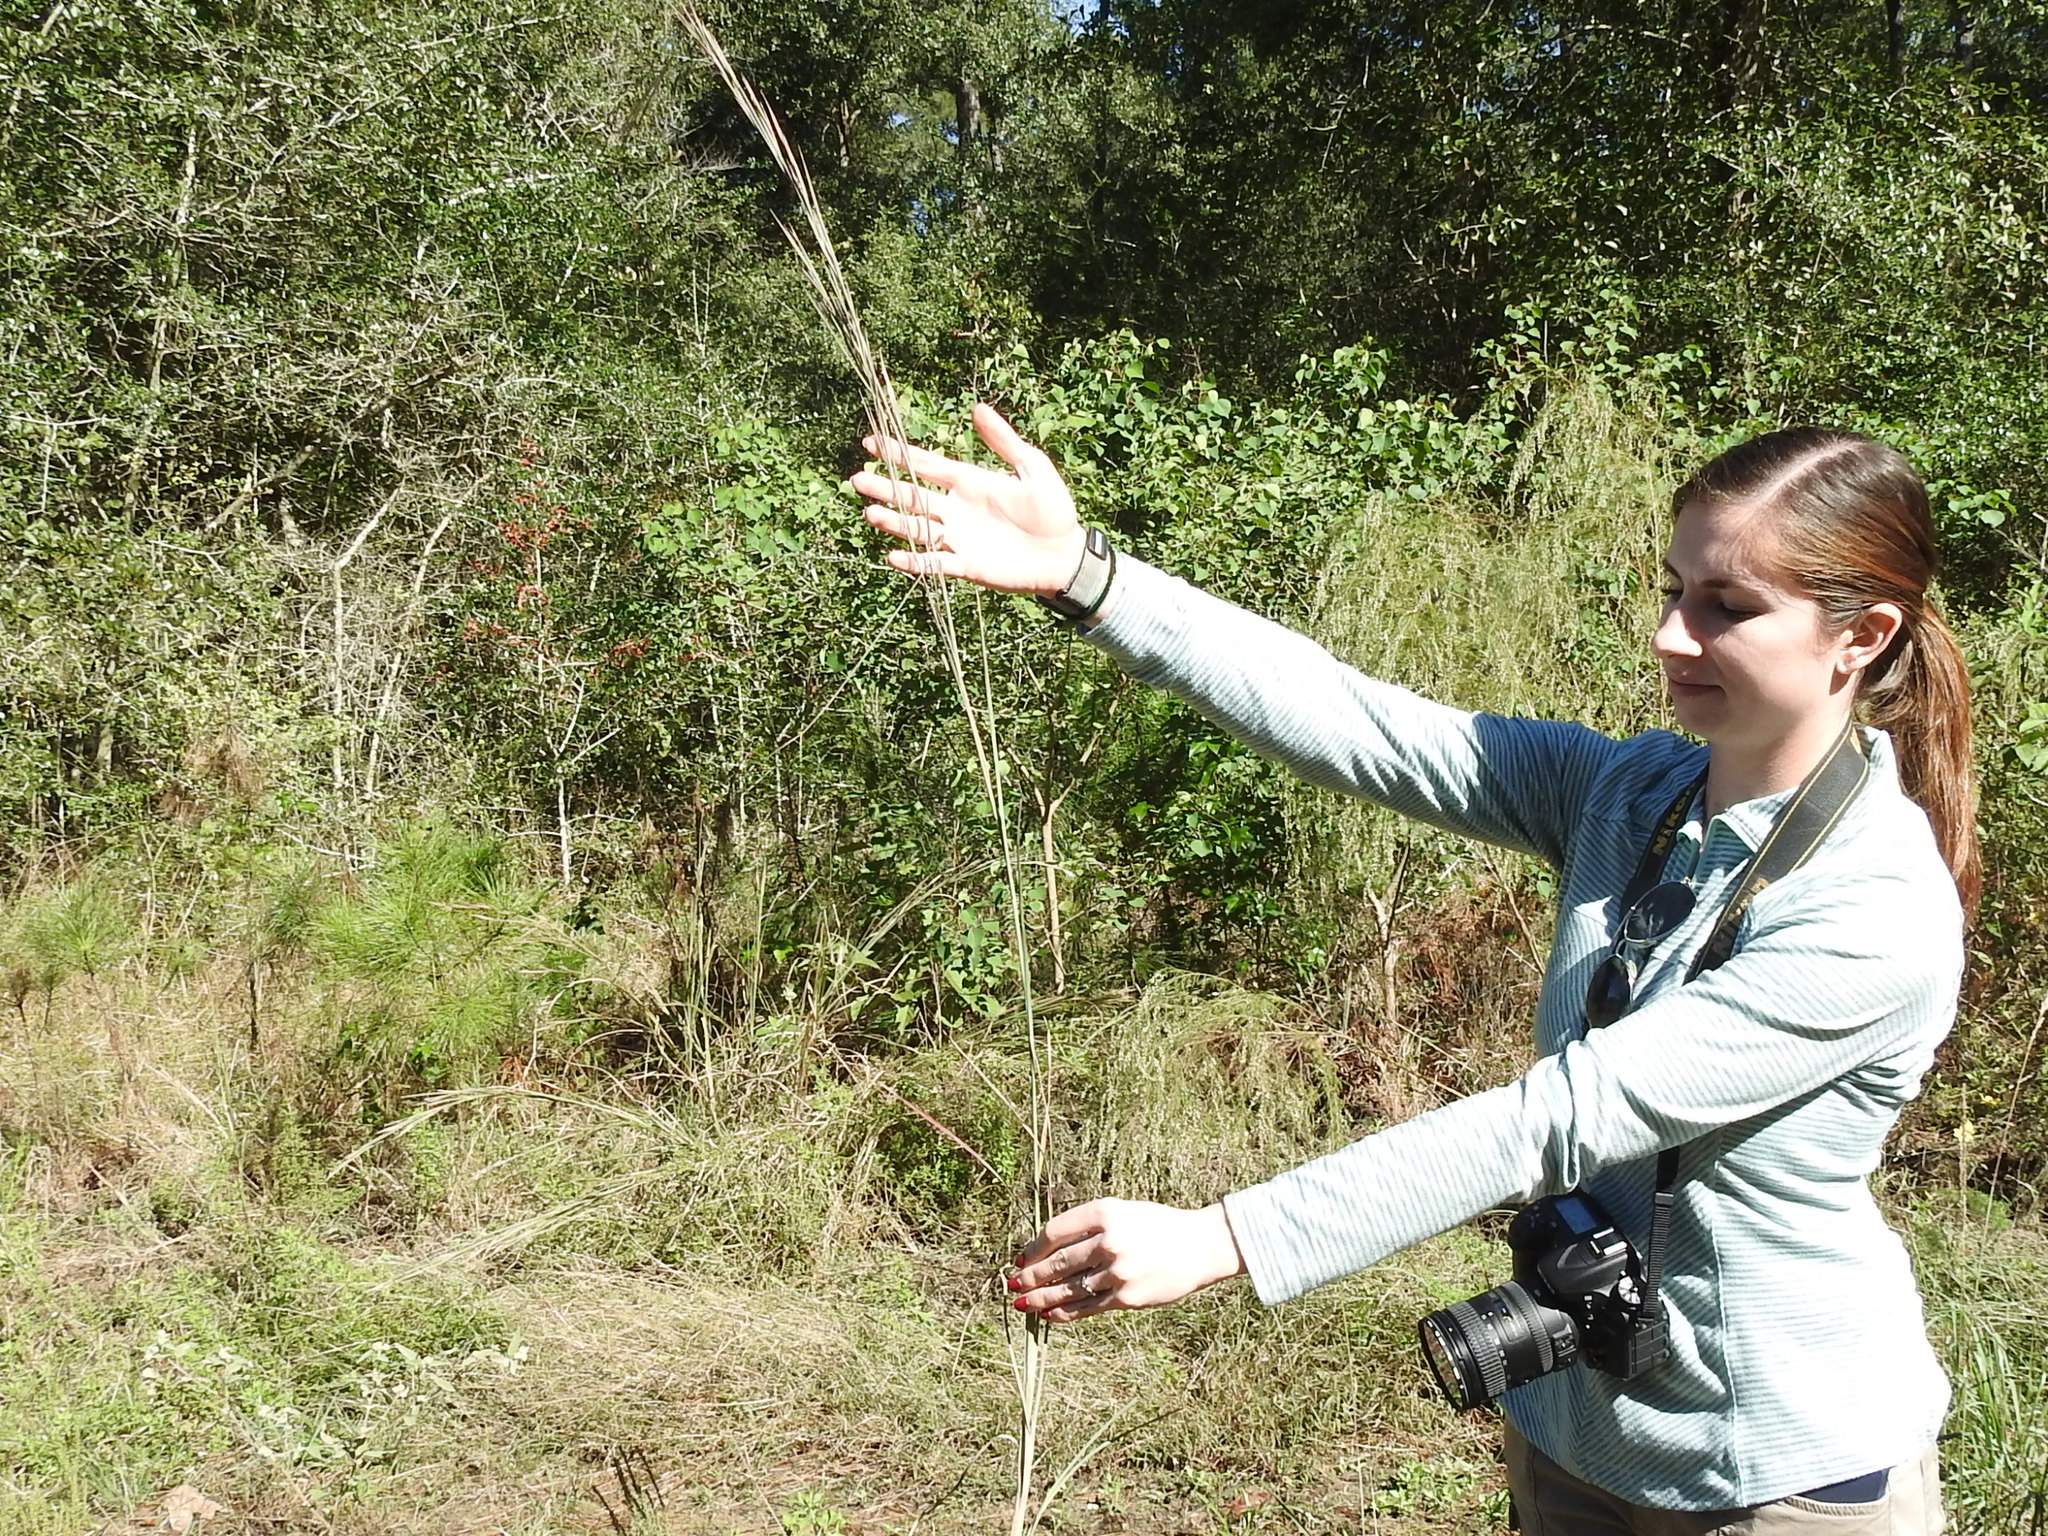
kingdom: Plantae
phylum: Tracheophyta
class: Liliopsida
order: Poales
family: Poaceae
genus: Schizachyrium
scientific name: Schizachyrium scoparium
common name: Little bluestem
